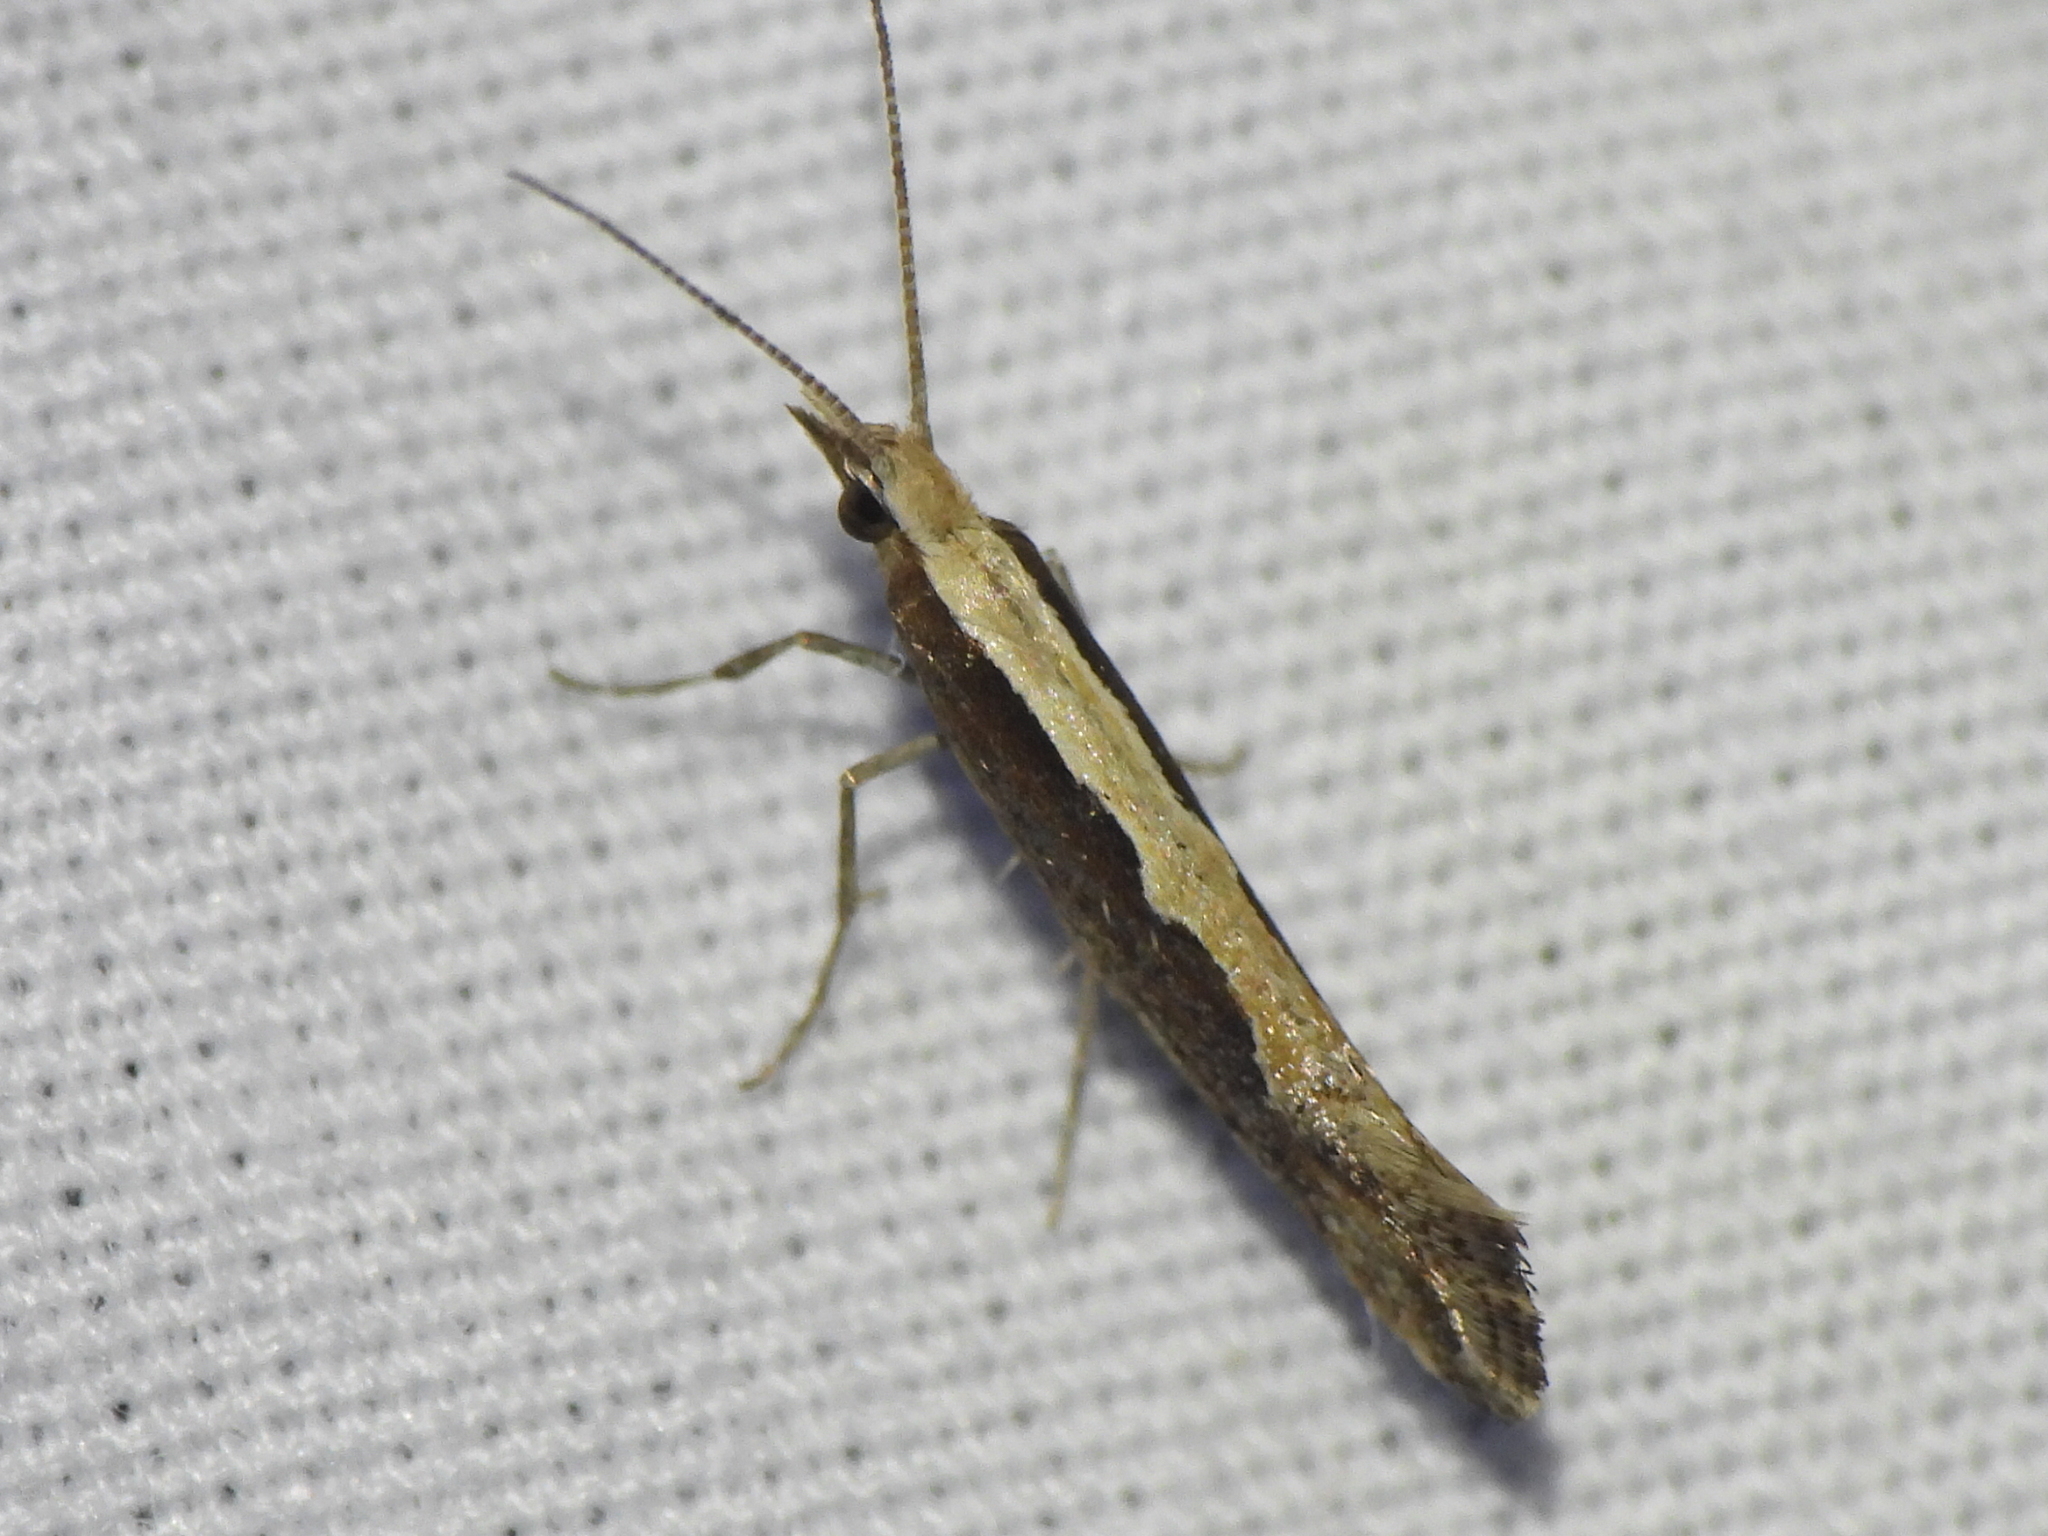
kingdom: Animalia
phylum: Arthropoda
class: Insecta
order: Lepidoptera
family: Plutellidae
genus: Plutella
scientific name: Plutella xylostella
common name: Diamond-back moth
